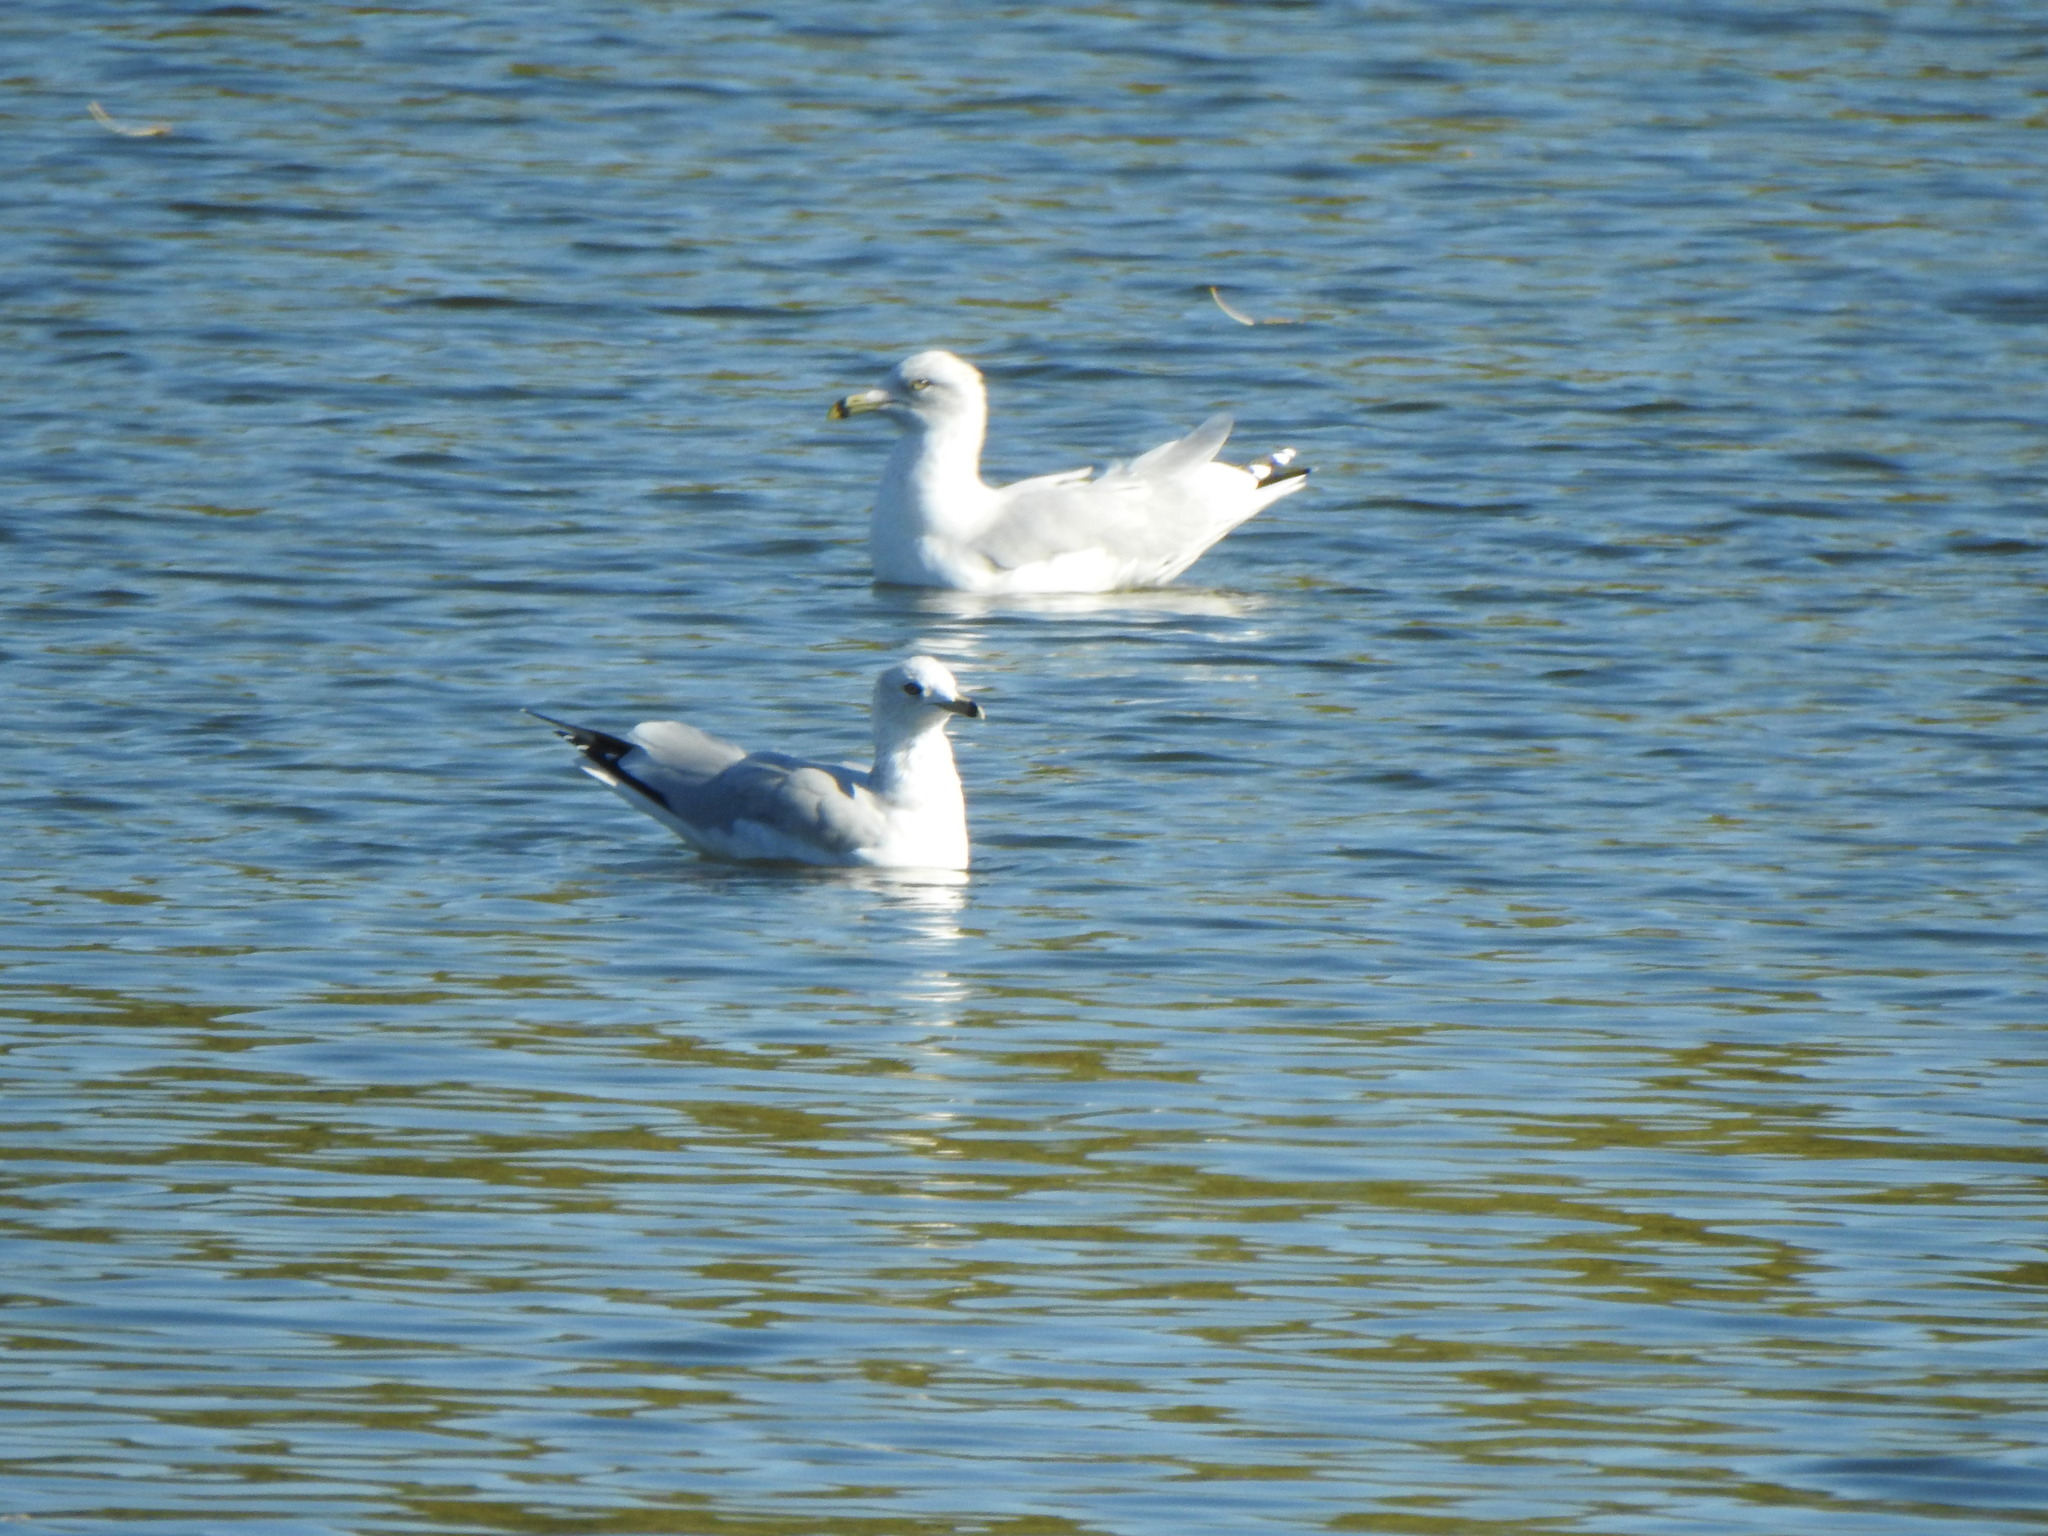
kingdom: Animalia
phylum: Chordata
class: Aves
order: Charadriiformes
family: Laridae
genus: Larus
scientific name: Larus delawarensis
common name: Ring-billed gull
